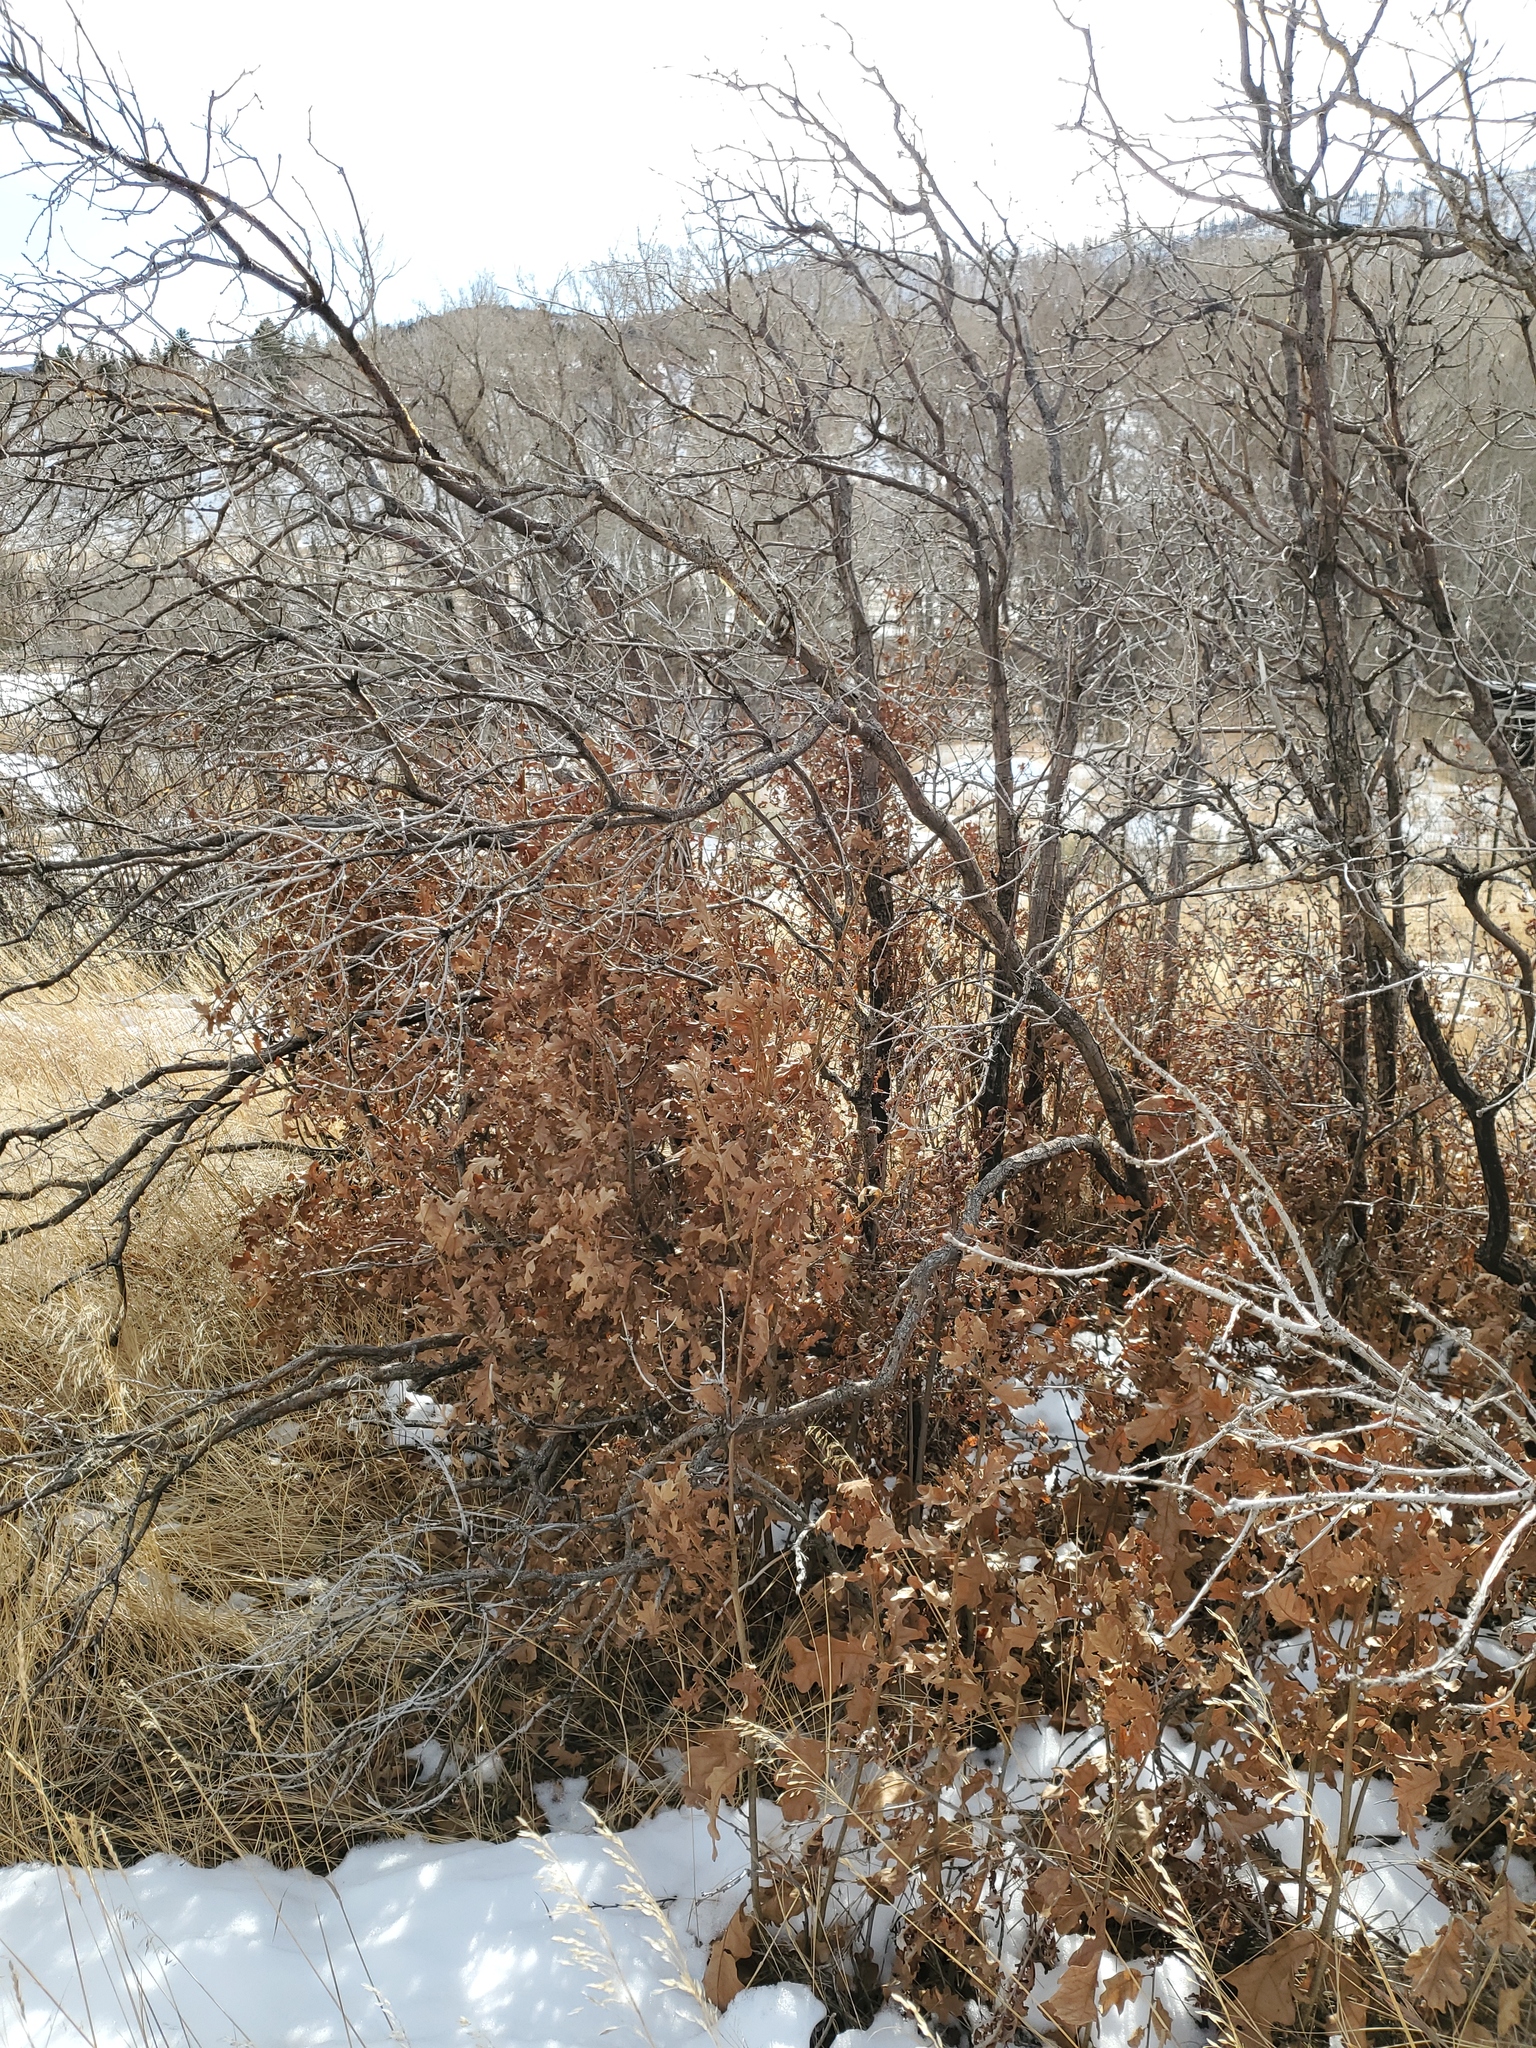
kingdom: Plantae
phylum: Tracheophyta
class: Magnoliopsida
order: Fagales
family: Fagaceae
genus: Quercus
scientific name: Quercus gambelii
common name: Gambel oak
